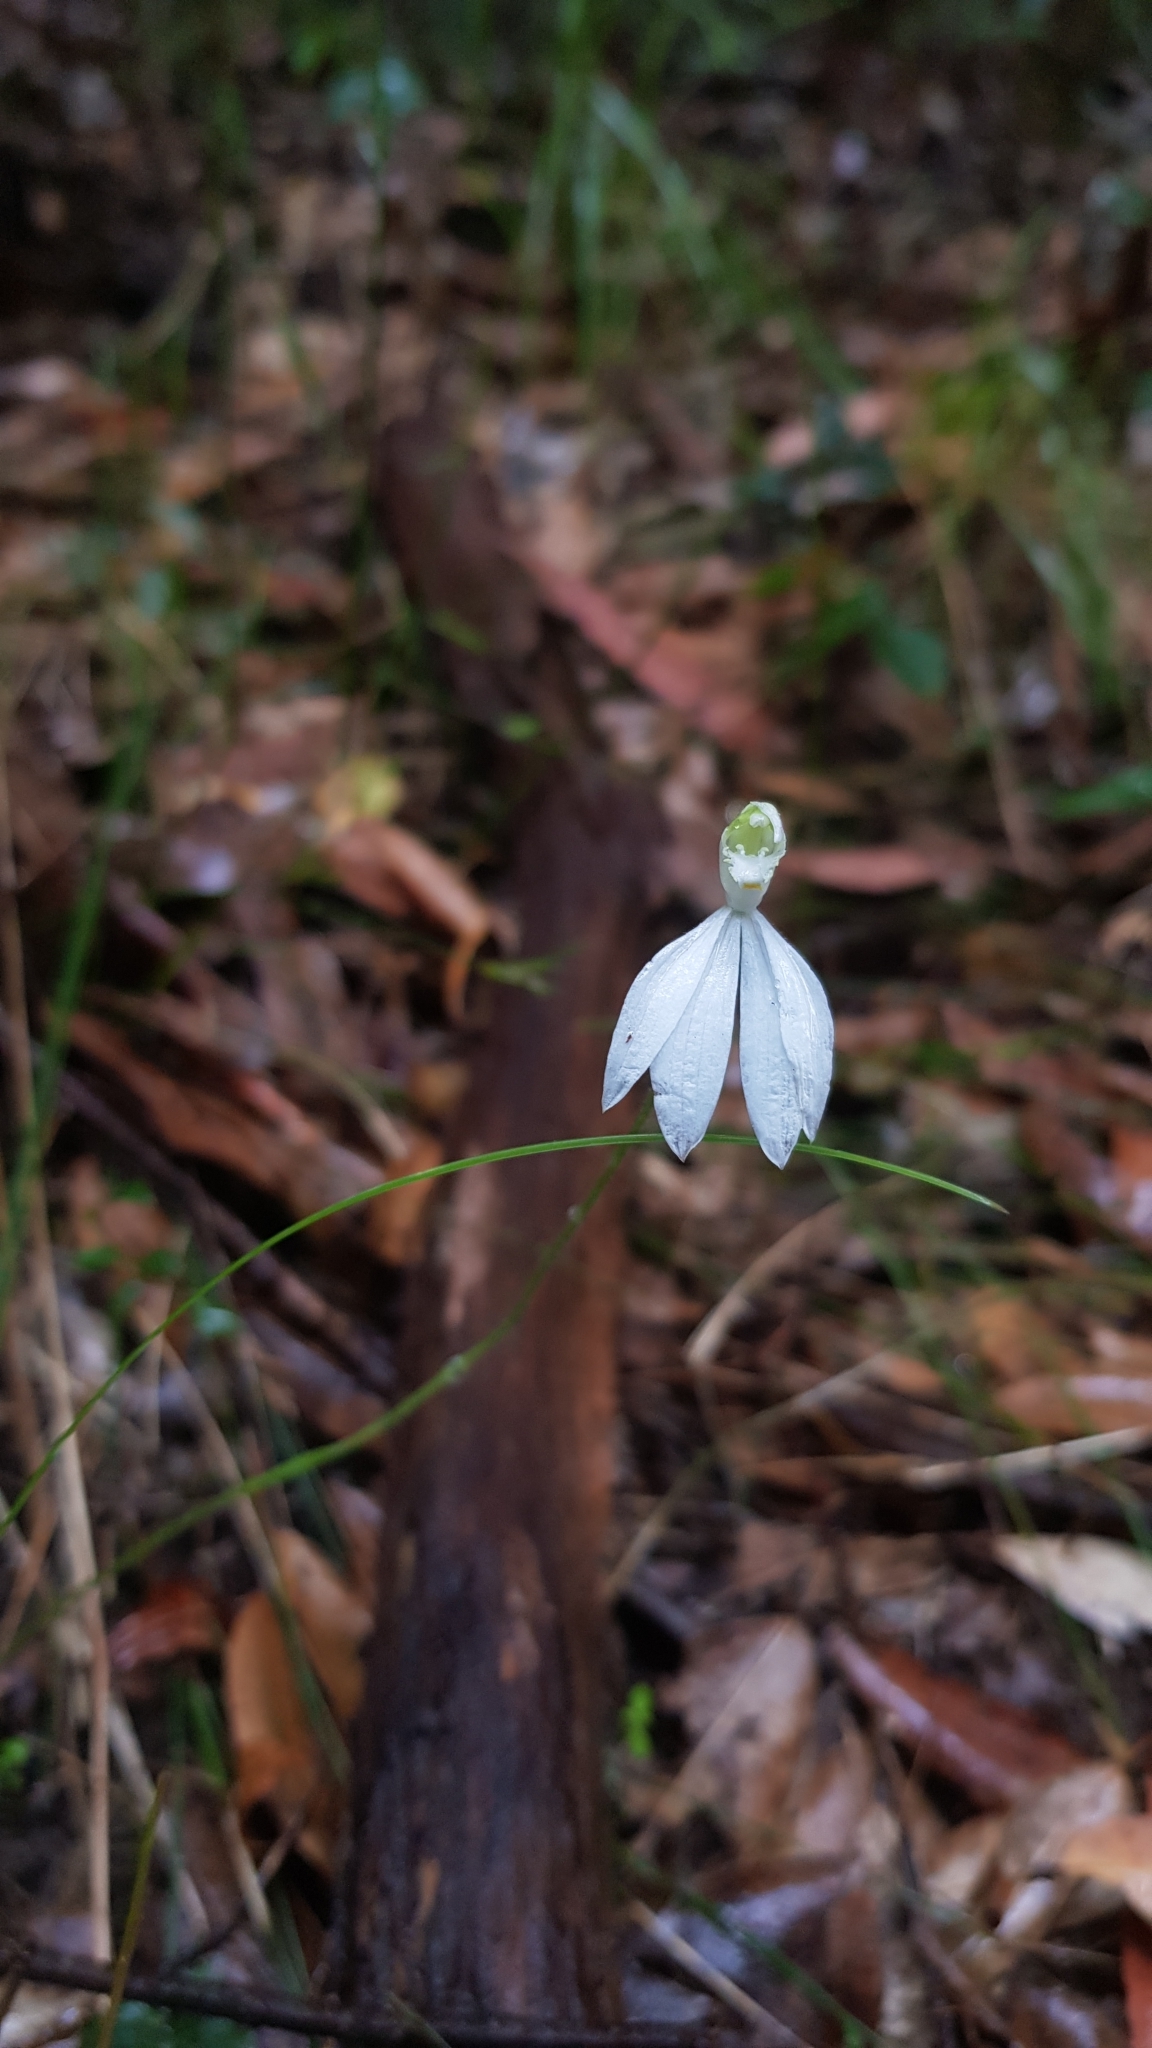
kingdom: Plantae
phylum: Tracheophyta
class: Liliopsida
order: Asparagales
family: Orchidaceae
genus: Caladenia
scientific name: Caladenia catenata
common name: White caladenia
